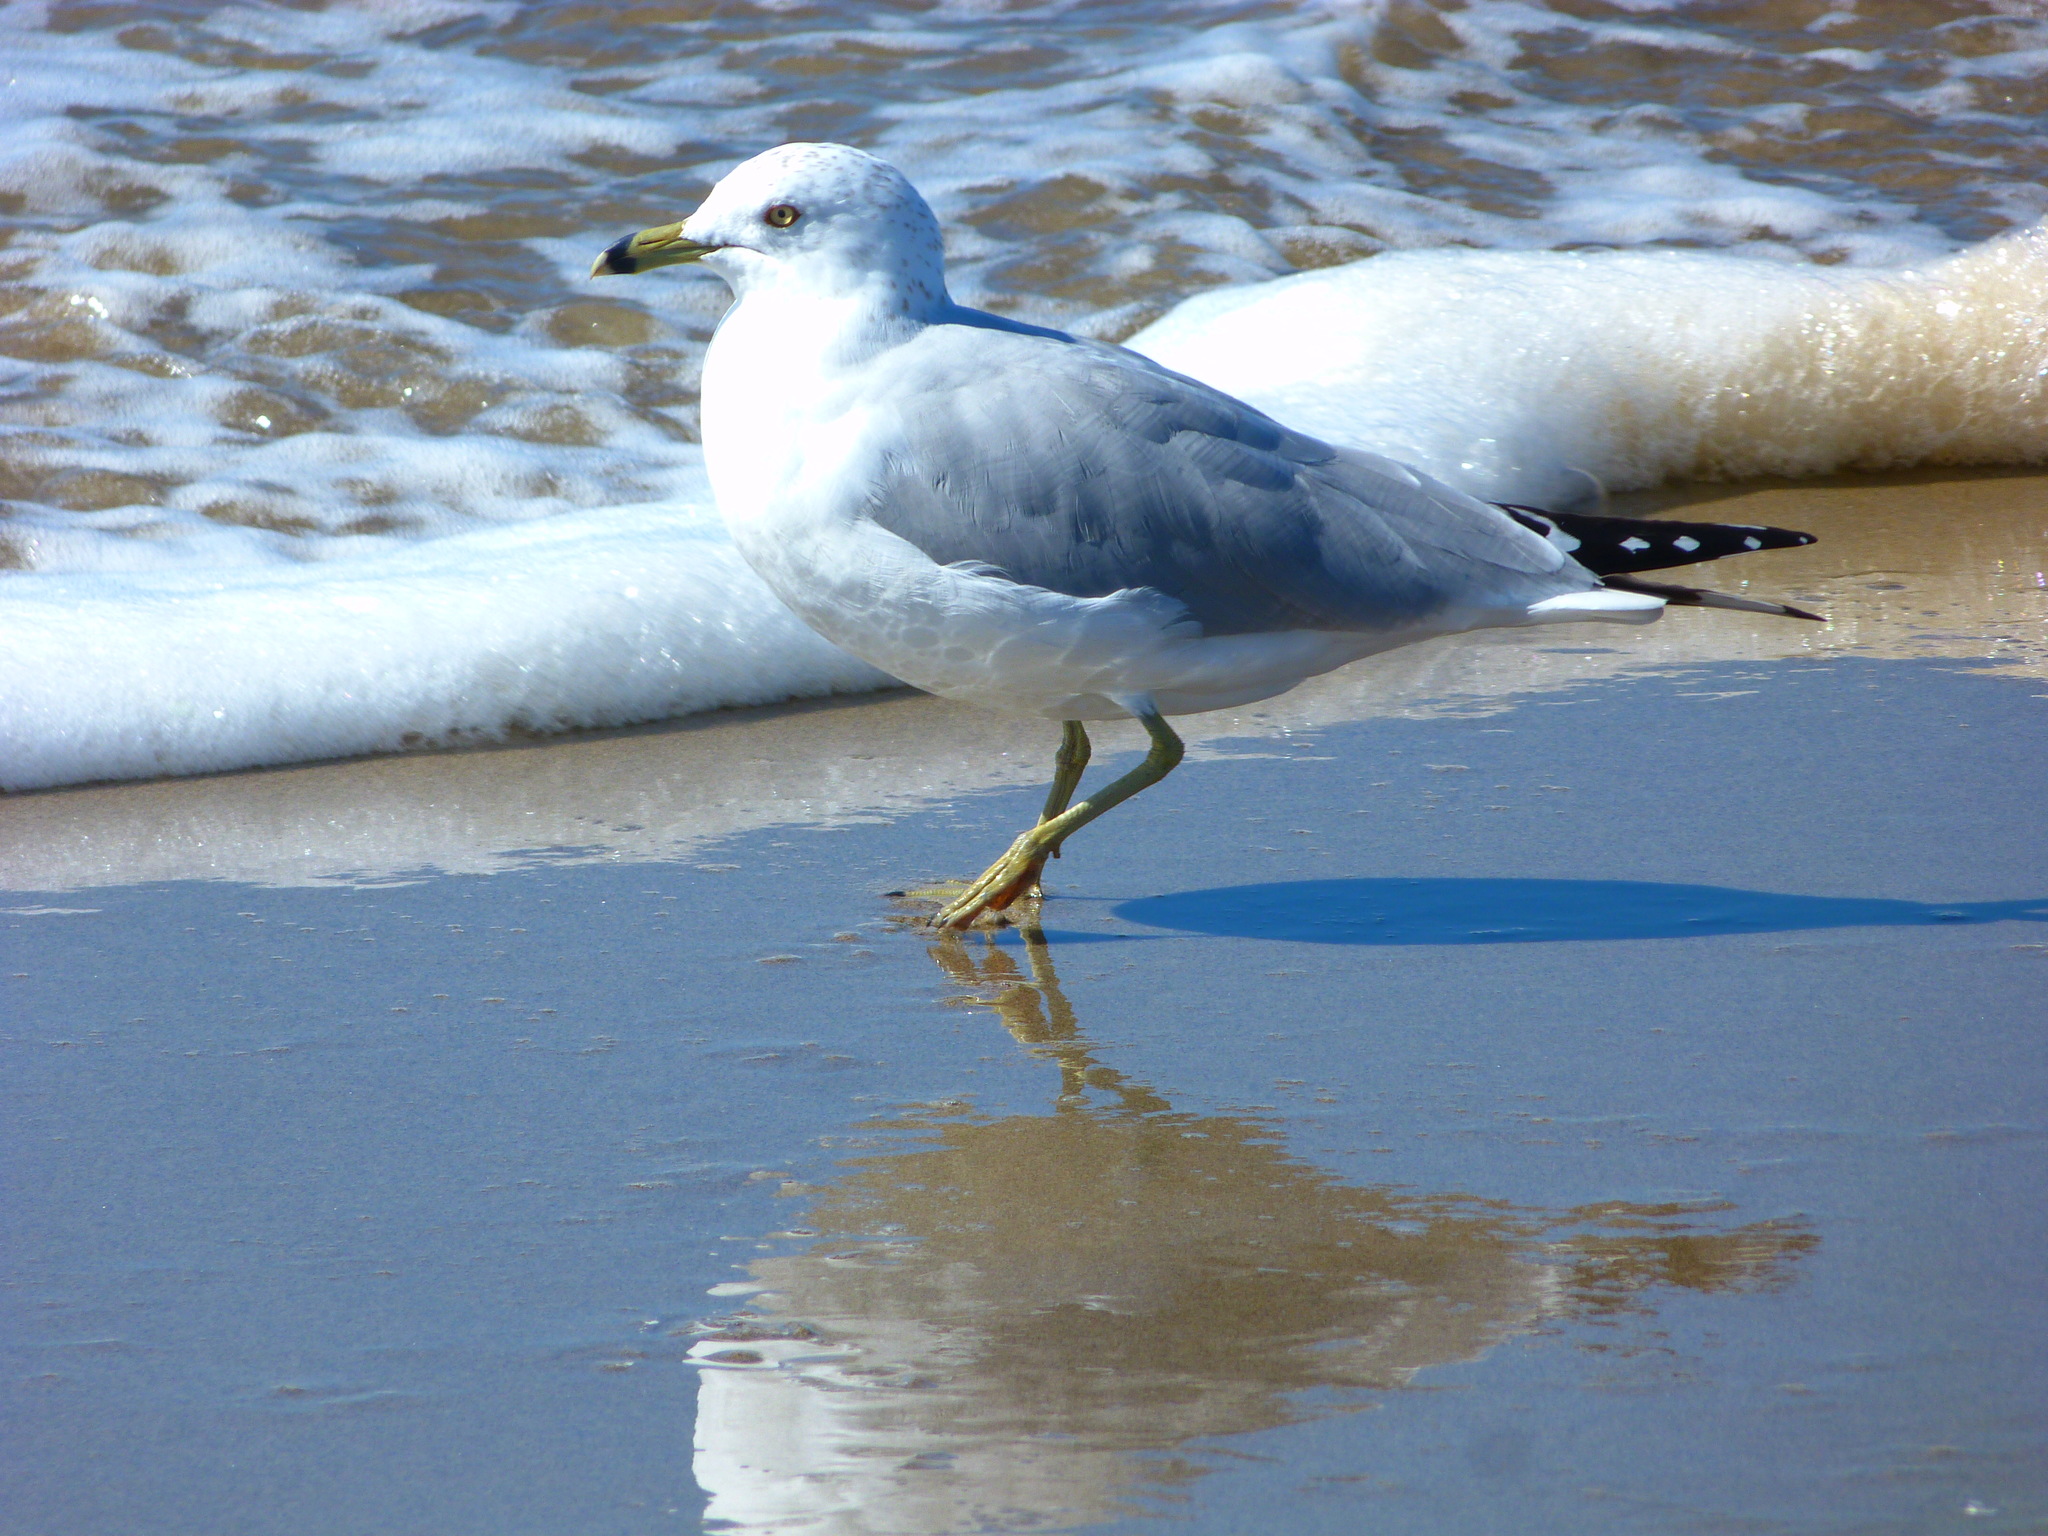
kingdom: Animalia
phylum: Chordata
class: Aves
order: Charadriiformes
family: Laridae
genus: Larus
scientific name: Larus delawarensis
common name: Ring-billed gull
